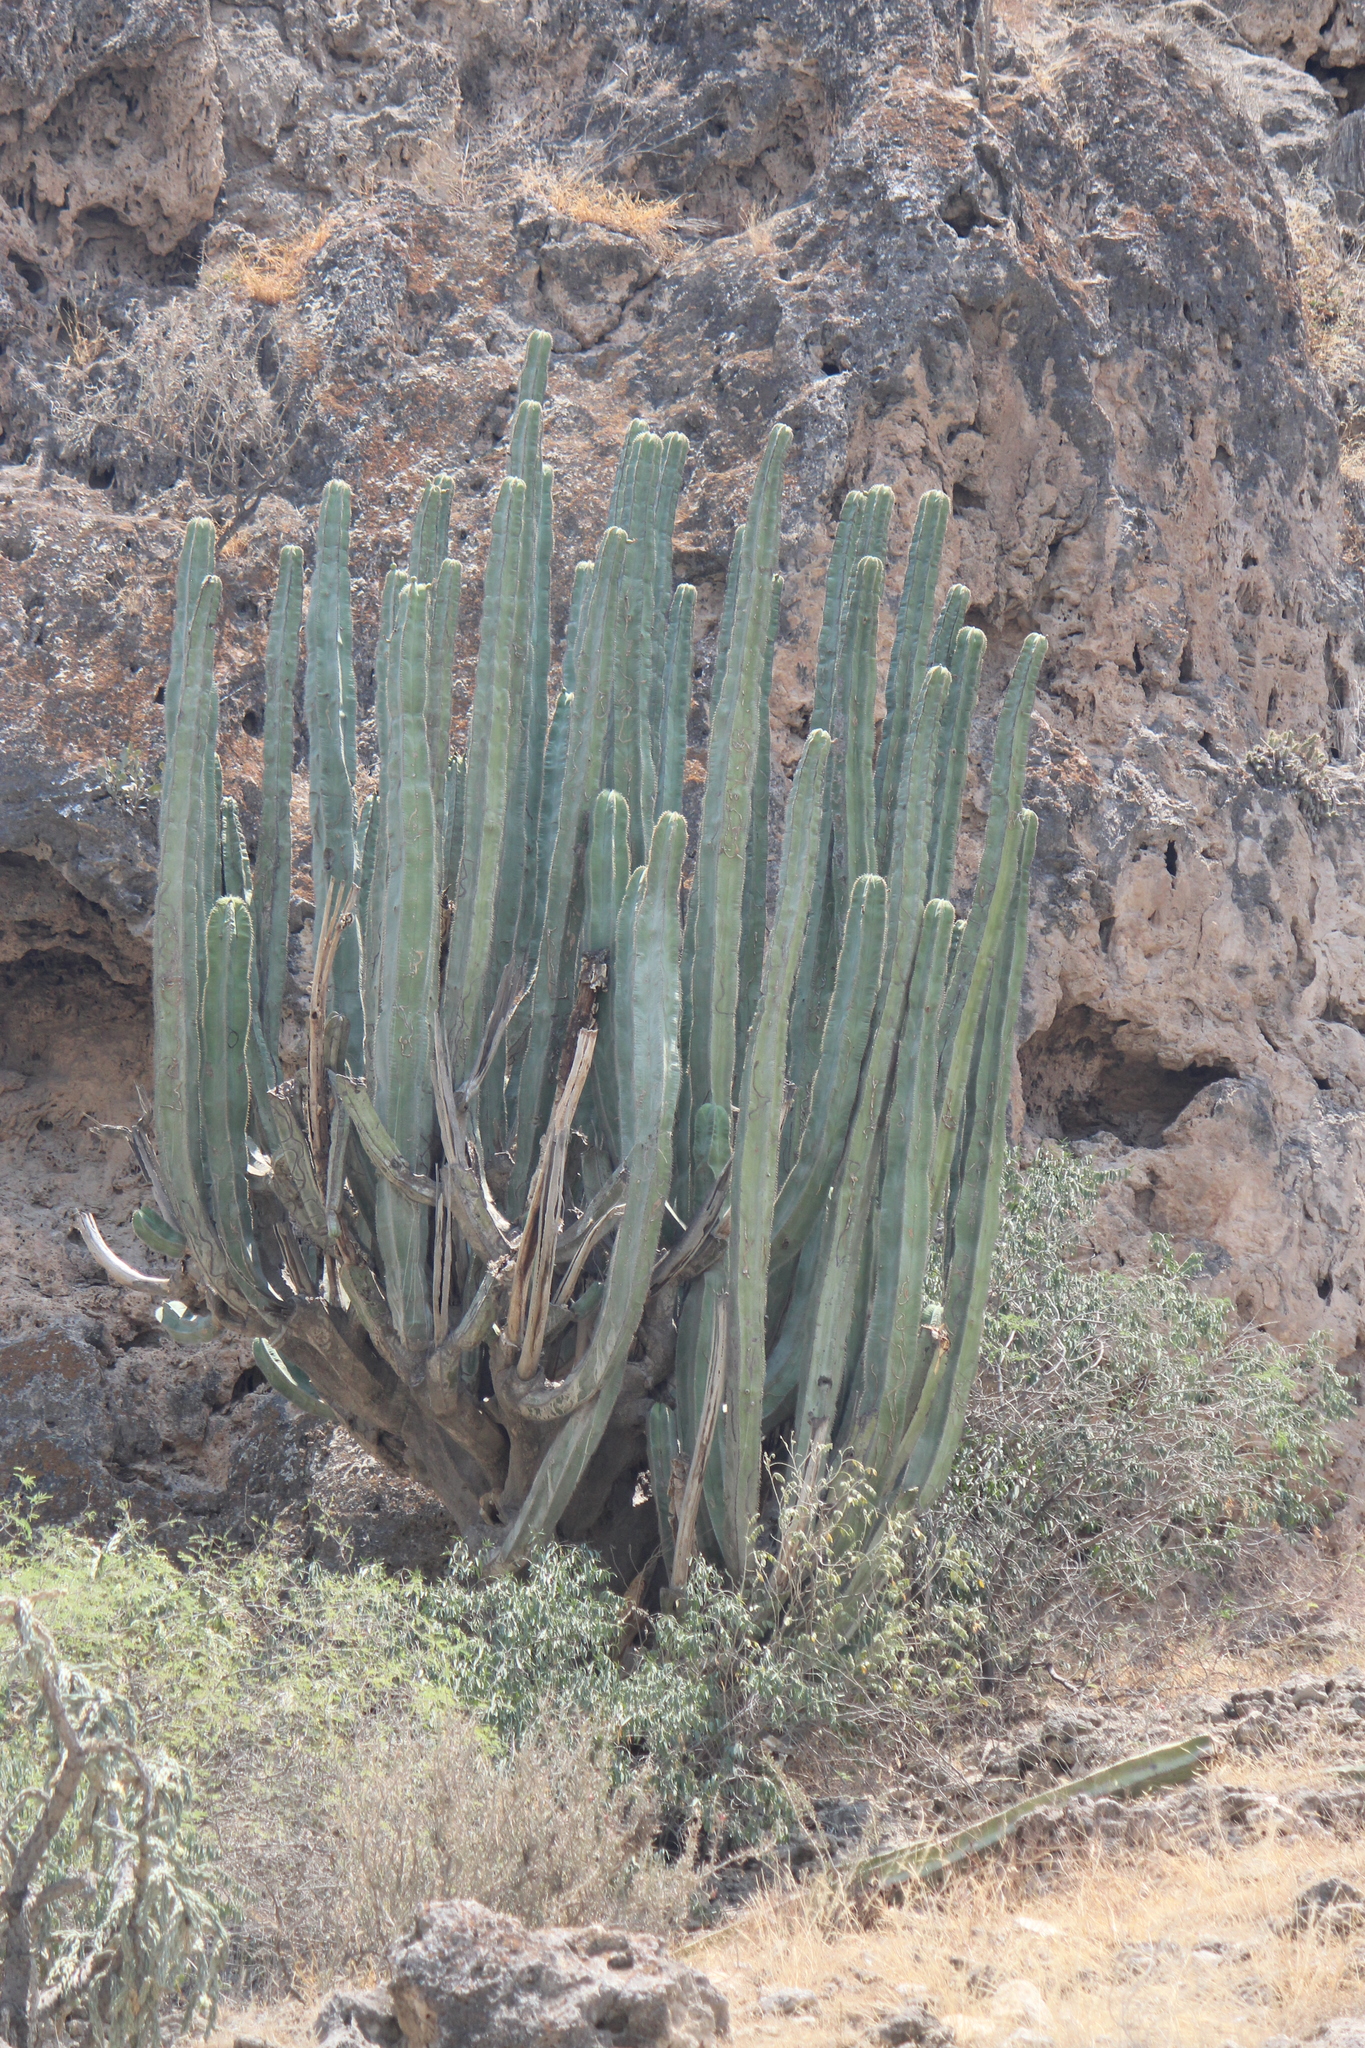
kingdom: Plantae
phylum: Tracheophyta
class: Magnoliopsida
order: Caryophyllales
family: Cactaceae
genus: Stenocereus
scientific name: Stenocereus dumortieri
